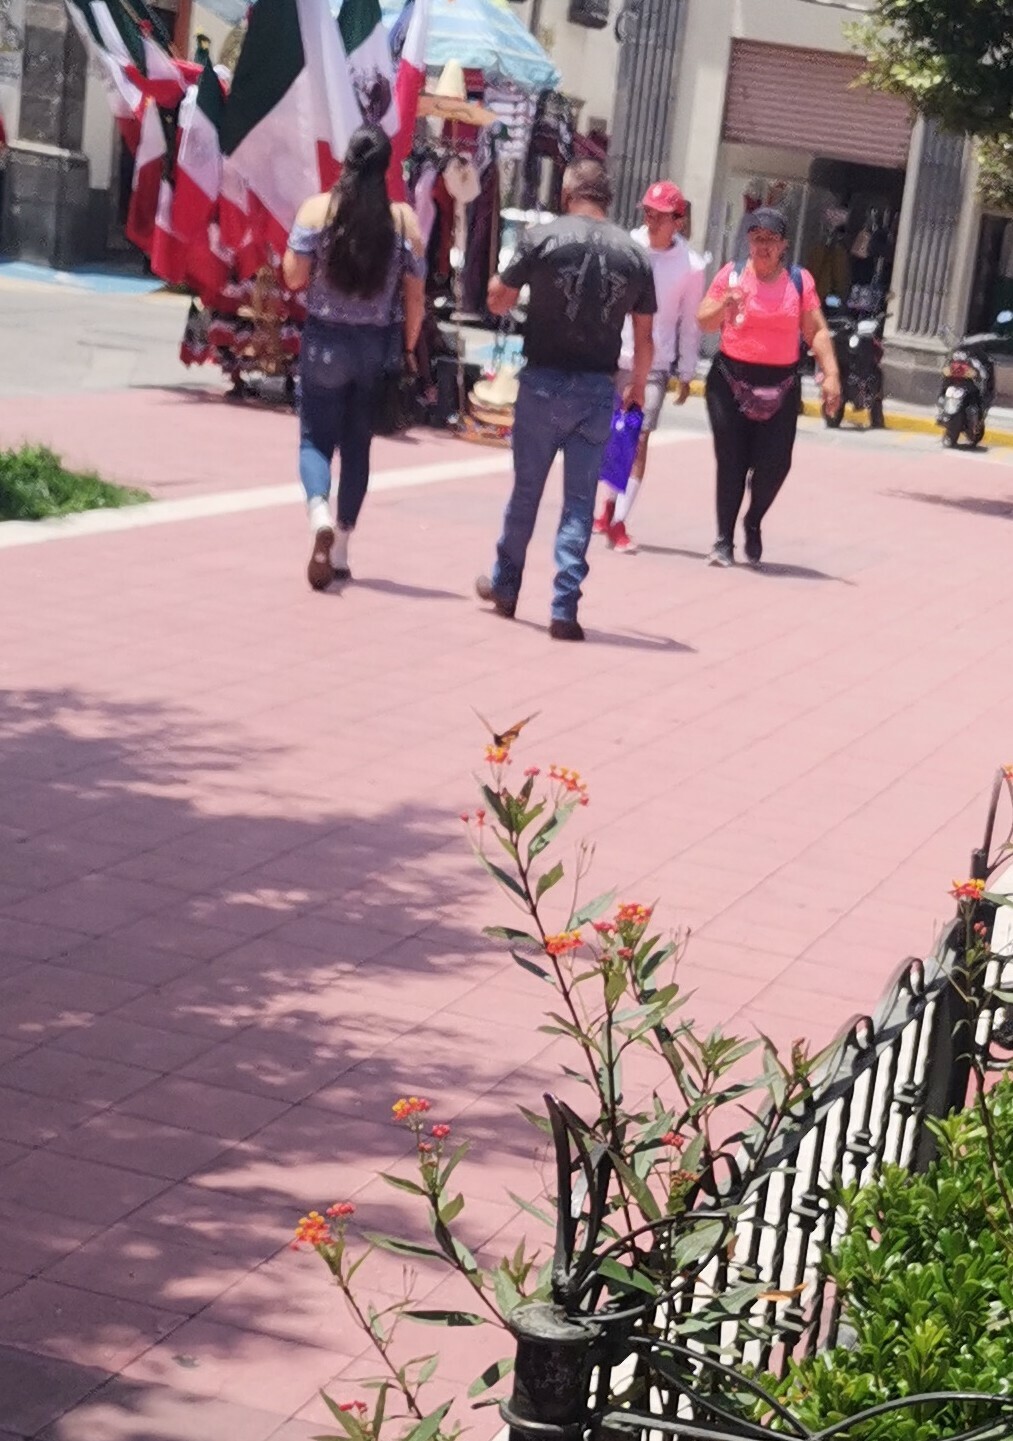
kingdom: Animalia
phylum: Arthropoda
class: Insecta
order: Lepidoptera
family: Nymphalidae
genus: Danaus
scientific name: Danaus plexippus
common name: Monarch
